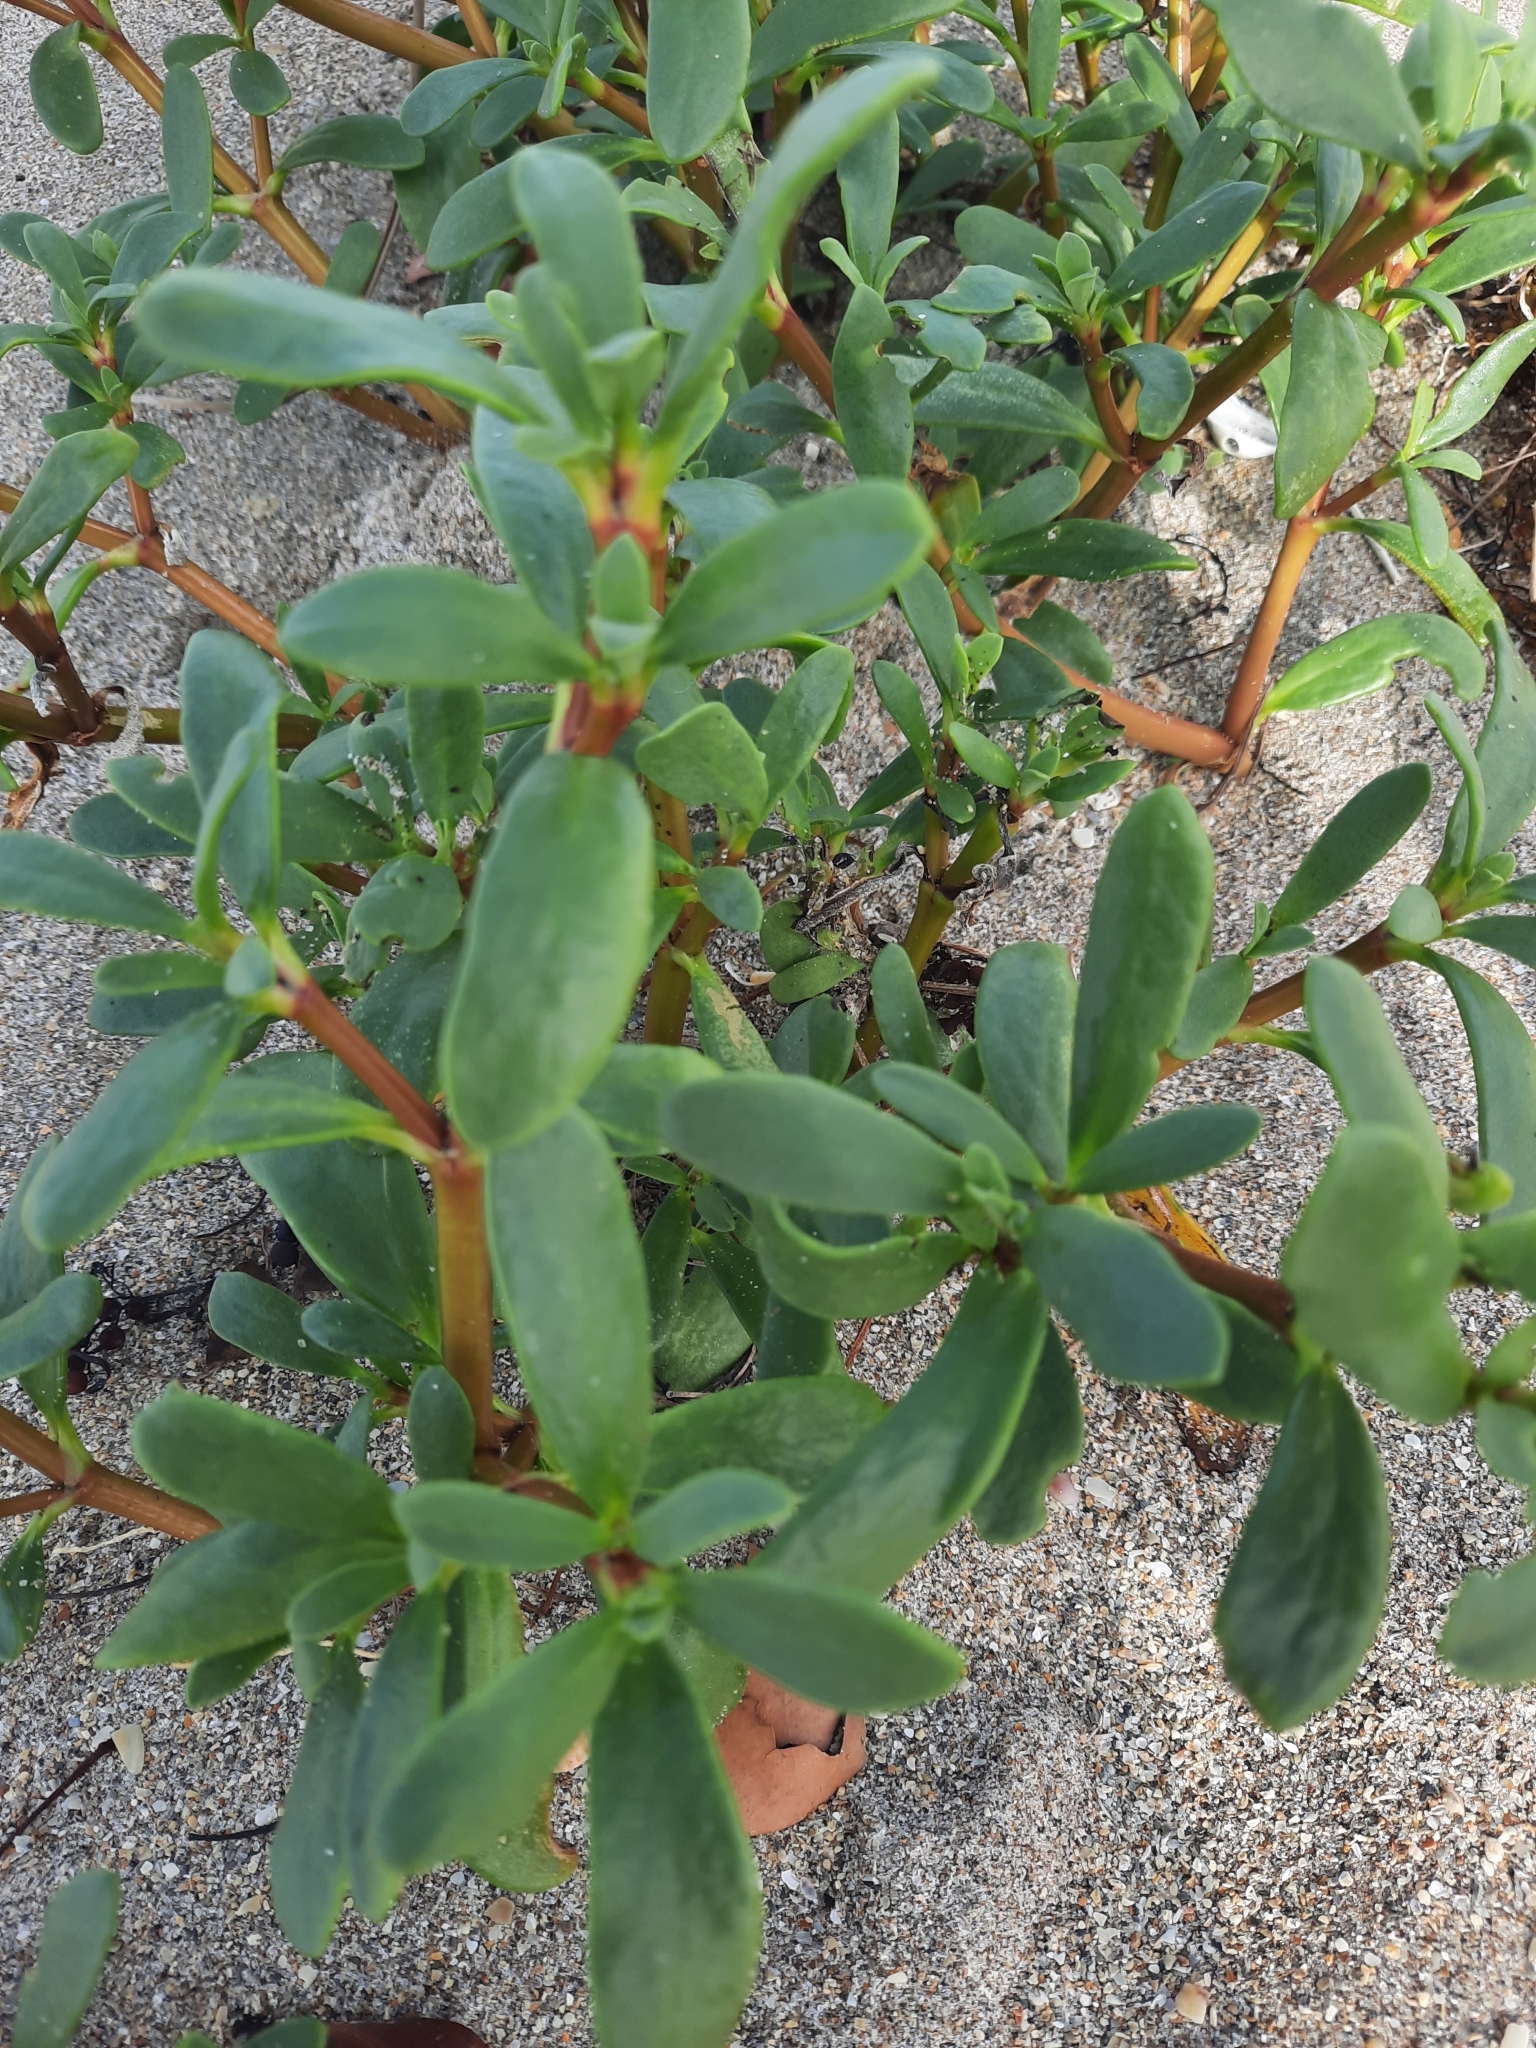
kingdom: Plantae
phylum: Tracheophyta
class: Magnoliopsida
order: Caryophyllales
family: Aizoaceae
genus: Sesuvium
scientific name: Sesuvium portulacastrum
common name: Sea-purslane
